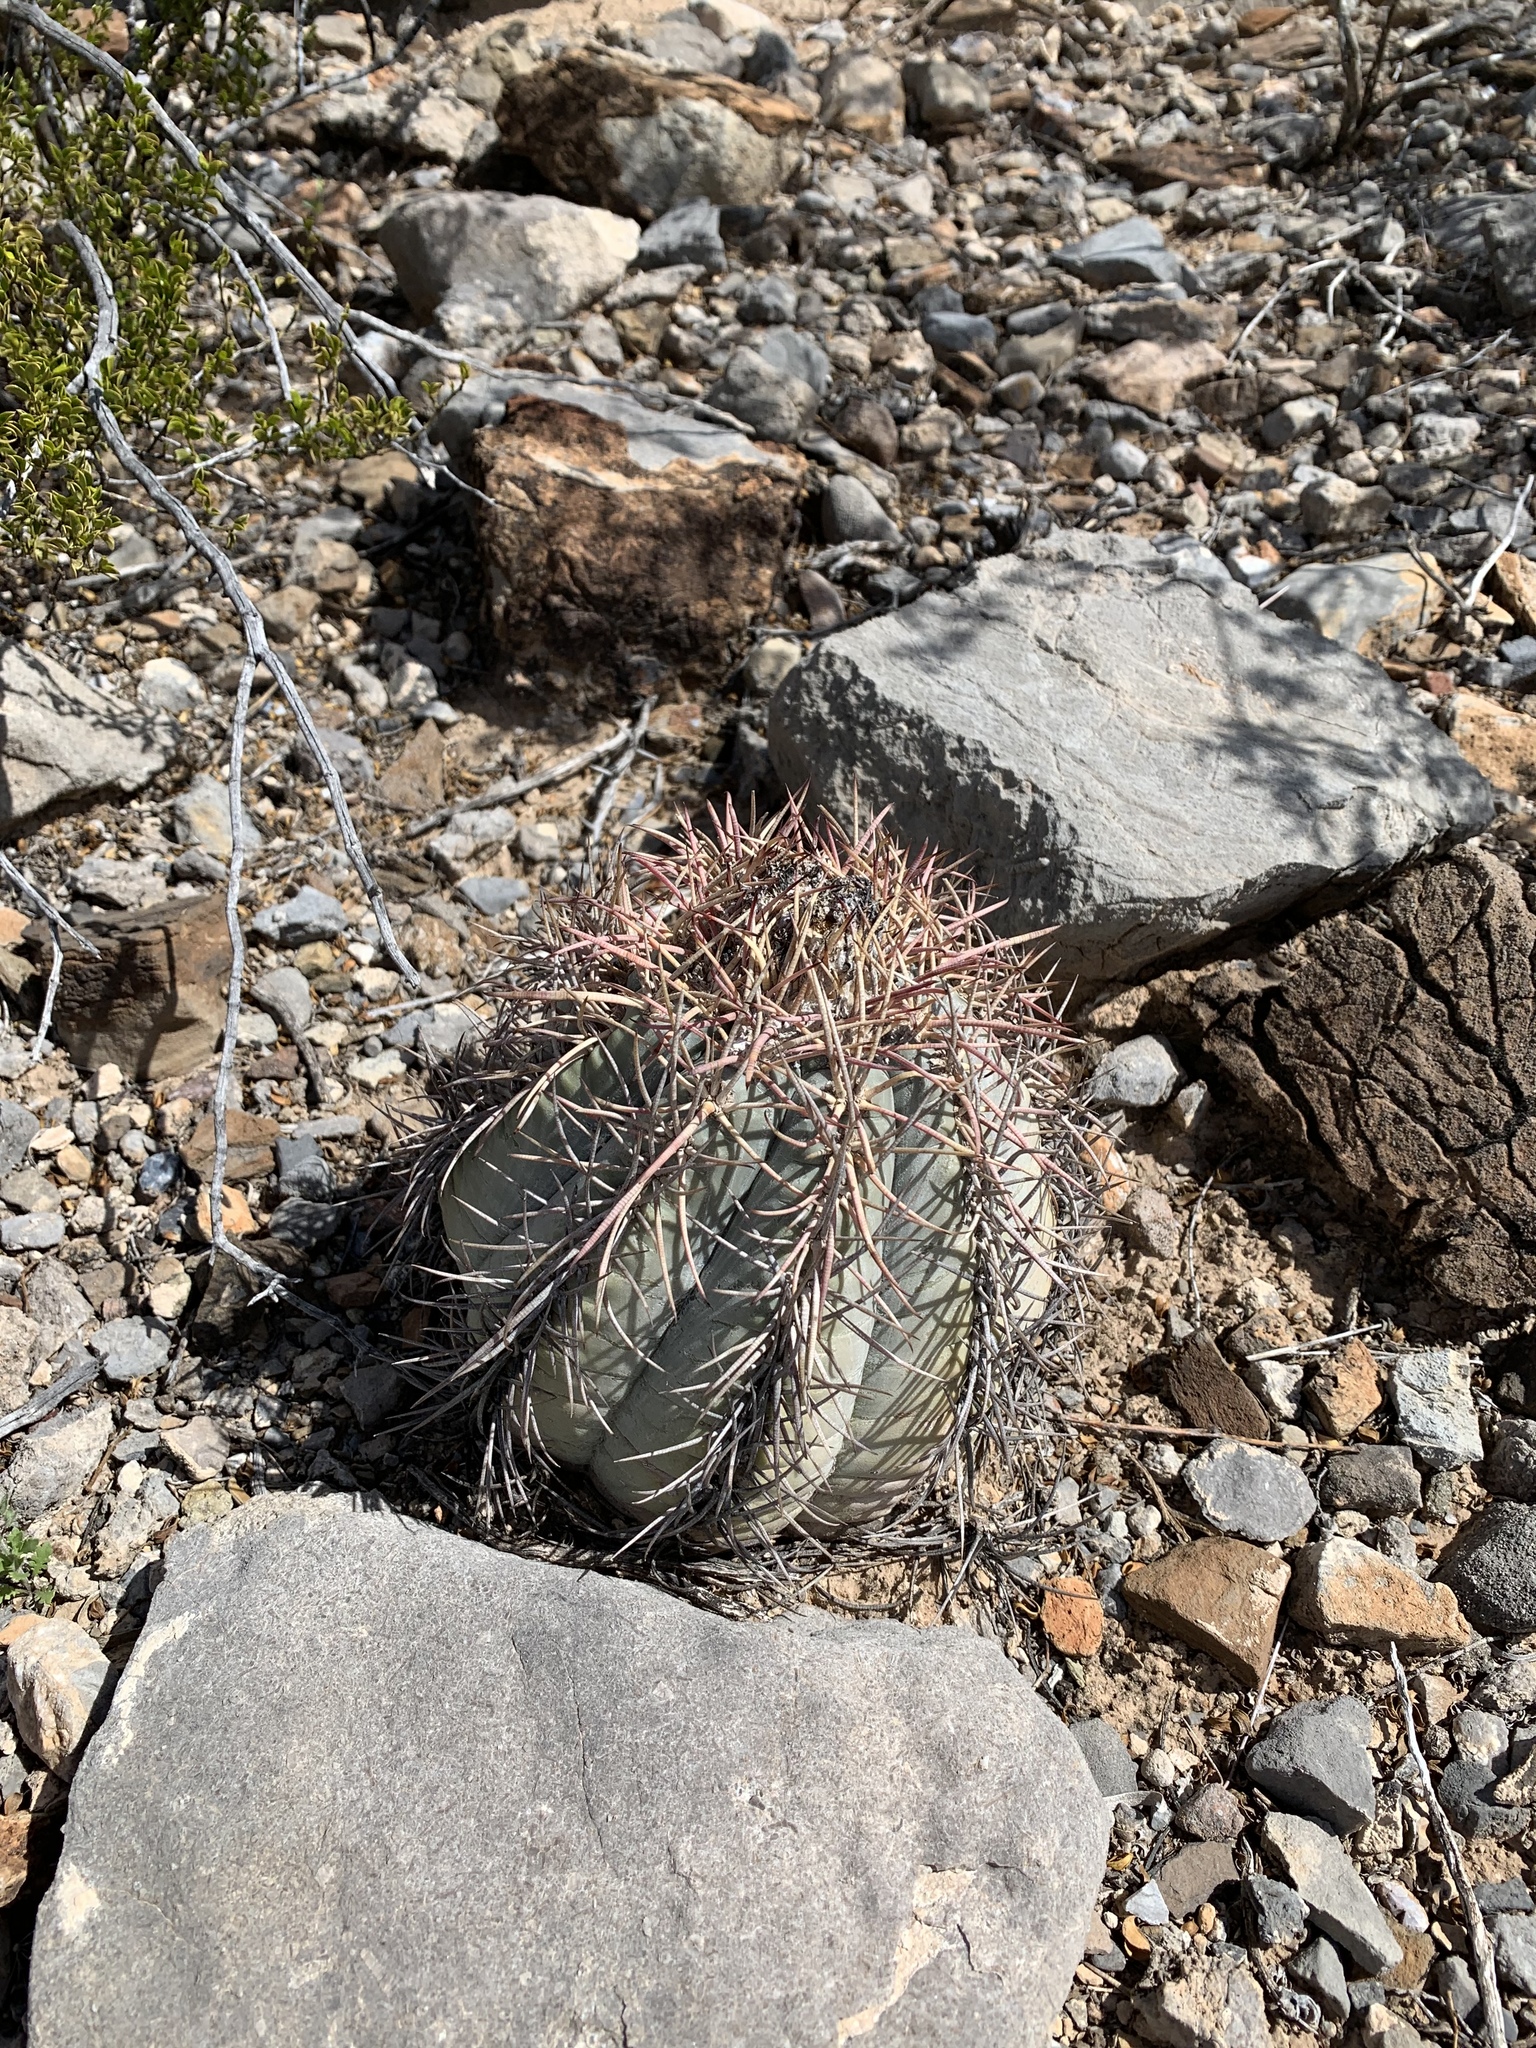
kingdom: Plantae
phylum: Tracheophyta
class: Magnoliopsida
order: Caryophyllales
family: Cactaceae
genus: Echinocactus
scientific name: Echinocactus horizonthalonius
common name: Devilshead
